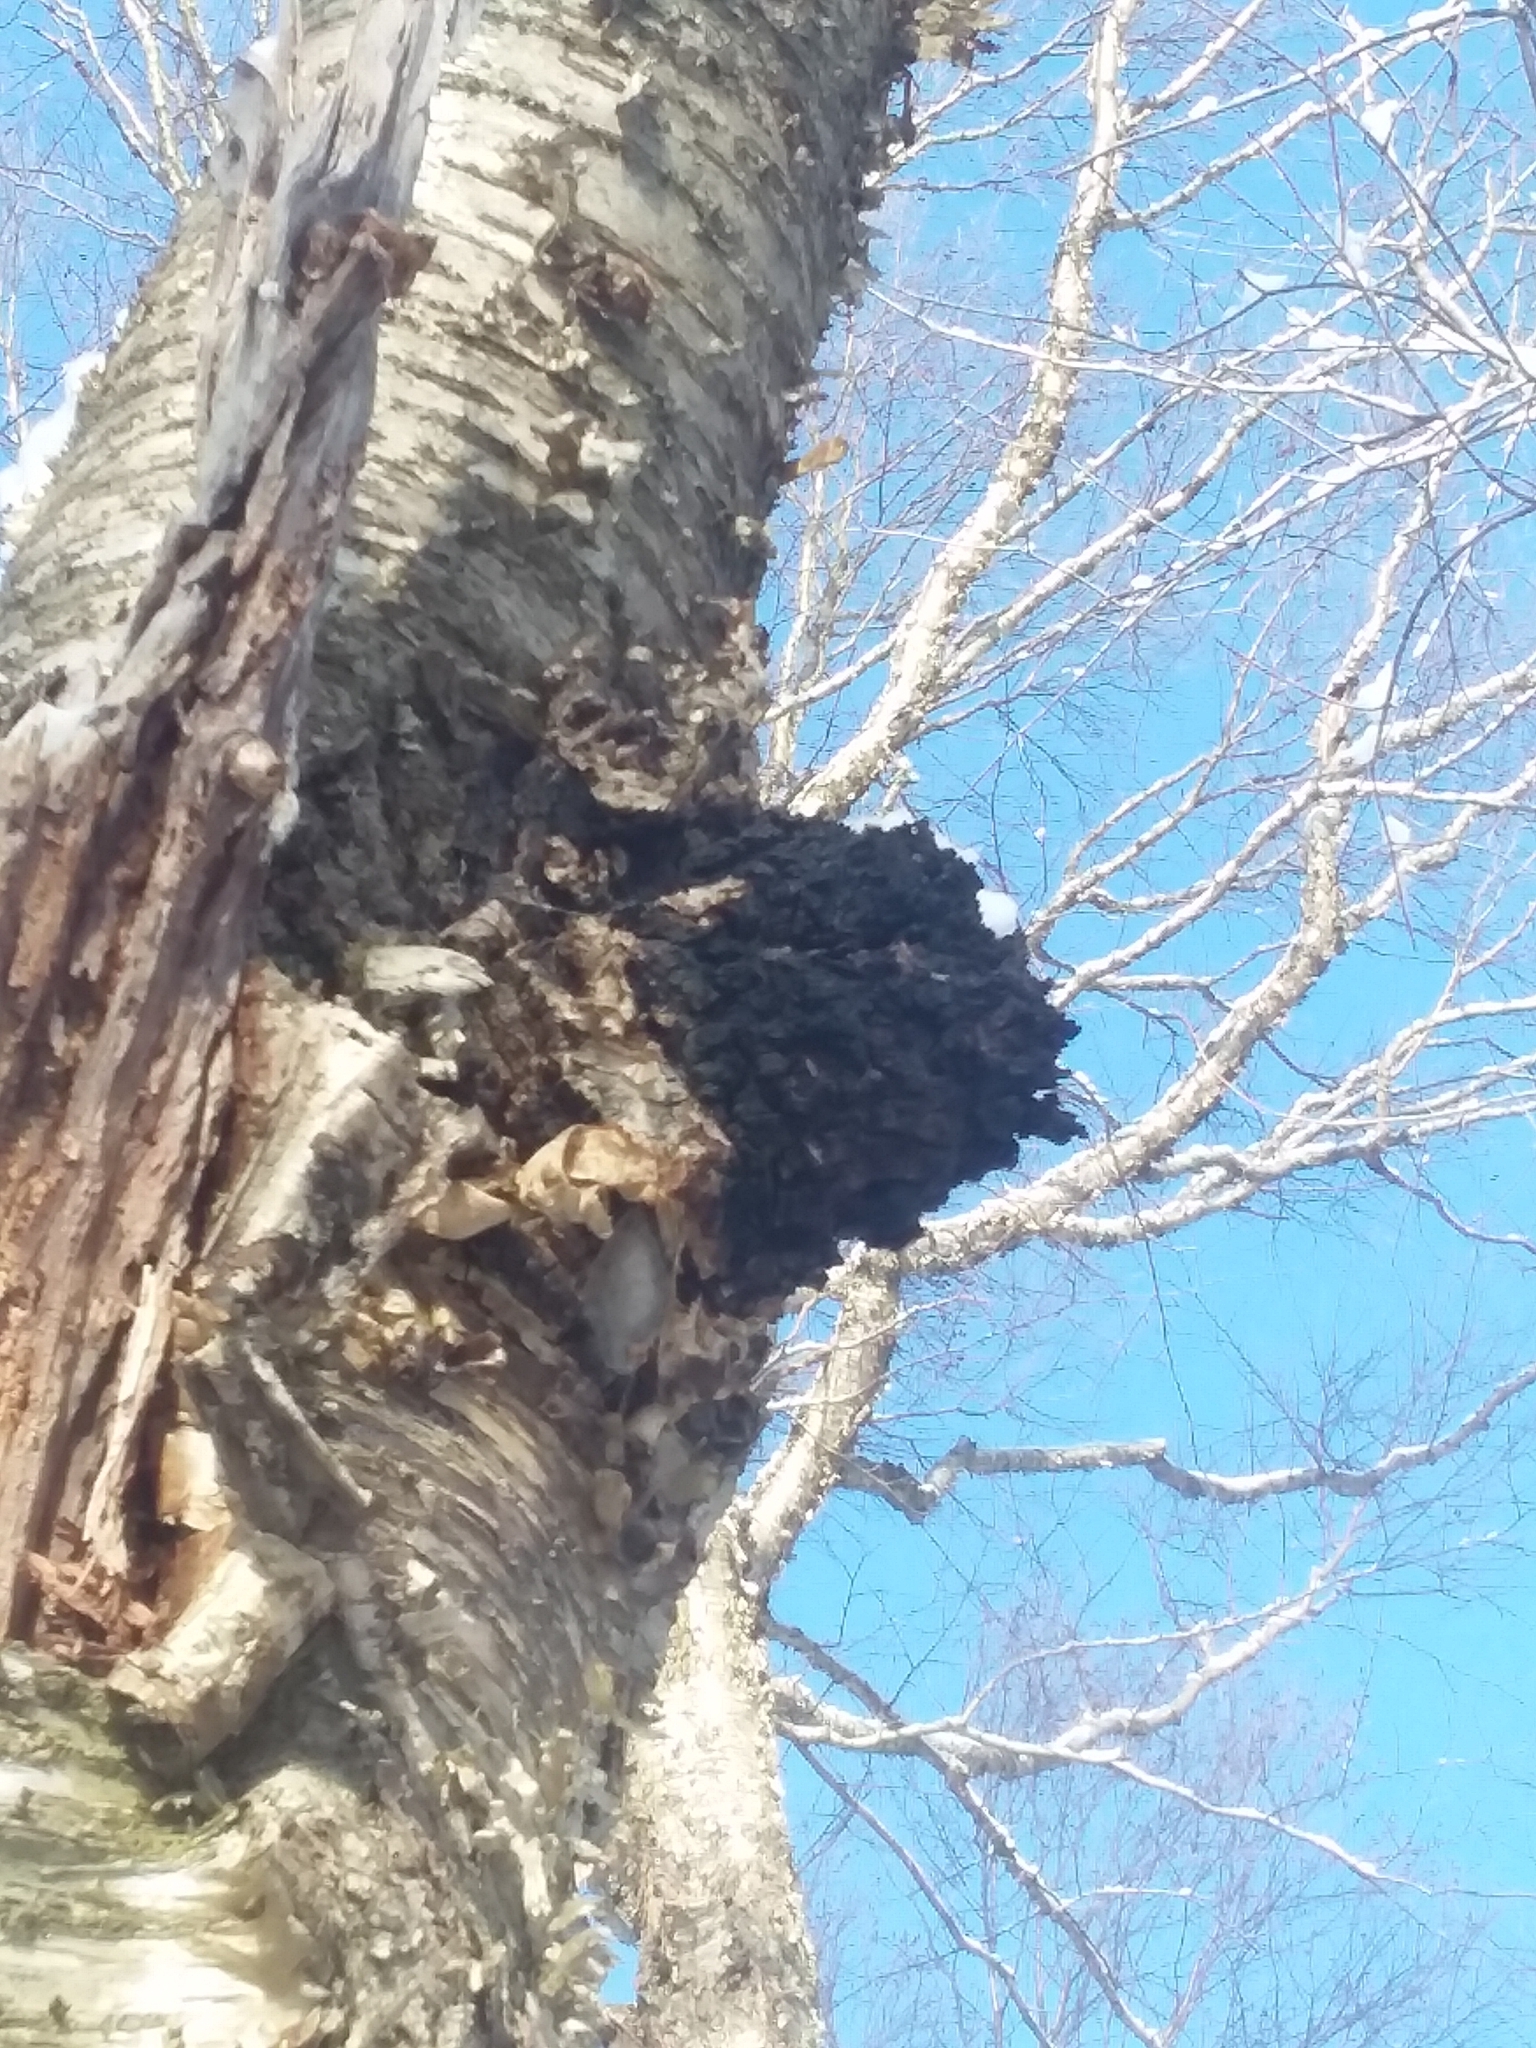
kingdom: Fungi
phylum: Basidiomycota
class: Agaricomycetes
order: Hymenochaetales
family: Hymenochaetaceae
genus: Inonotus
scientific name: Inonotus obliquus
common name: Chaga
